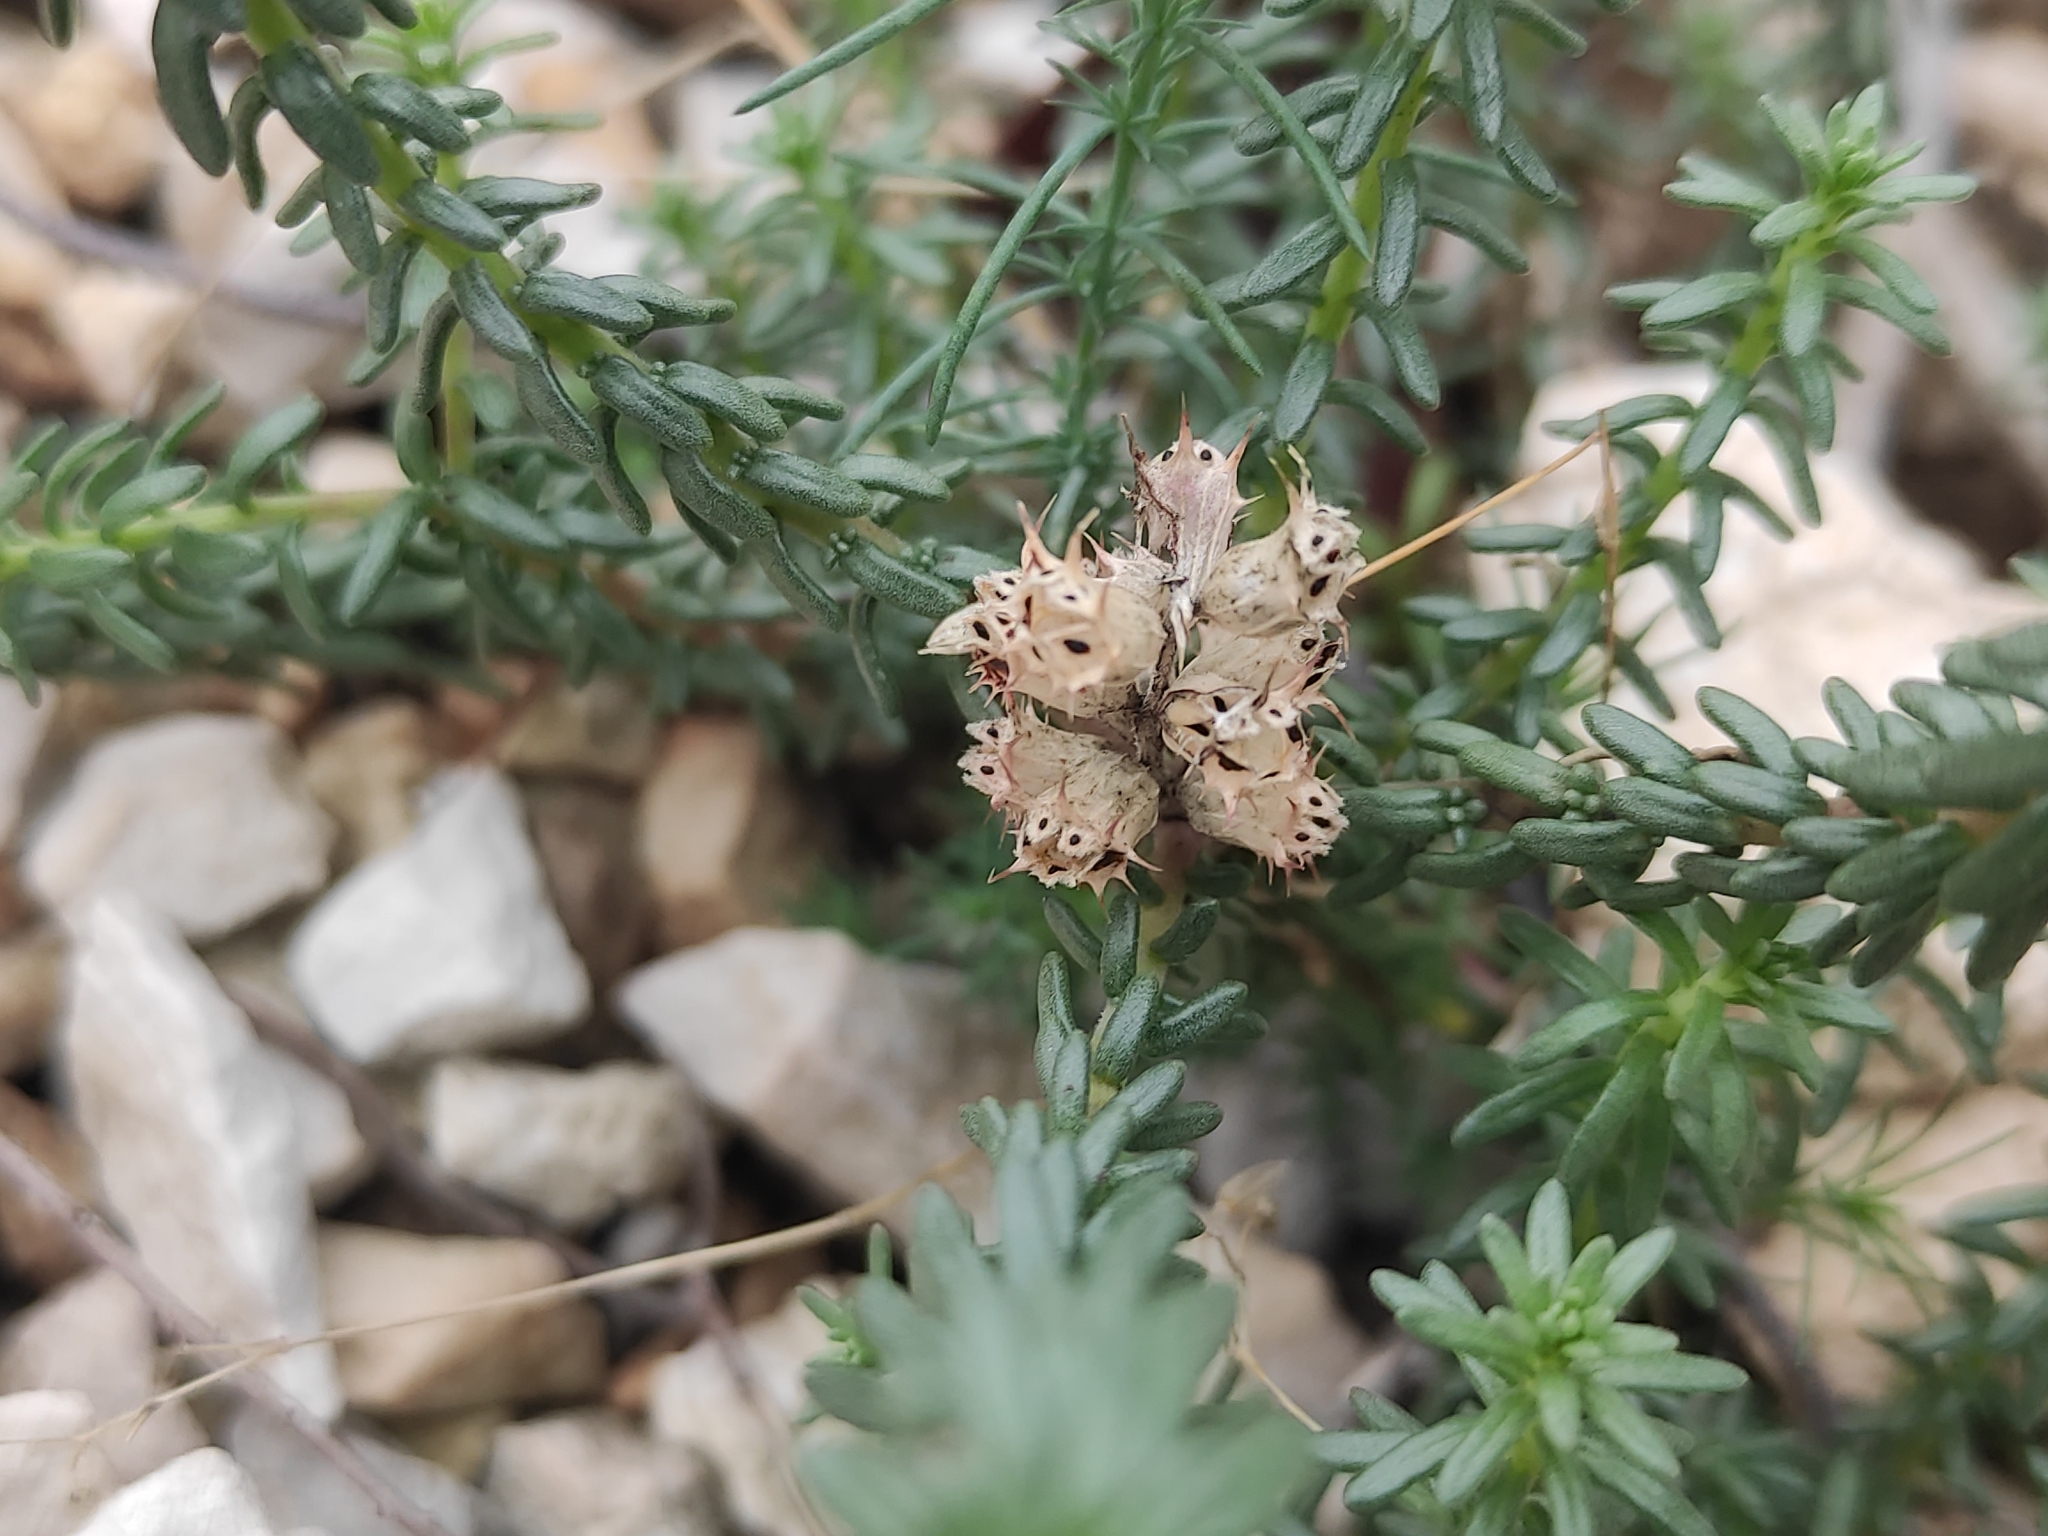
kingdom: Plantae
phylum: Tracheophyta
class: Magnoliopsida
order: Ericales
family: Primulaceae
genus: Coris
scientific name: Coris monspeliensis
